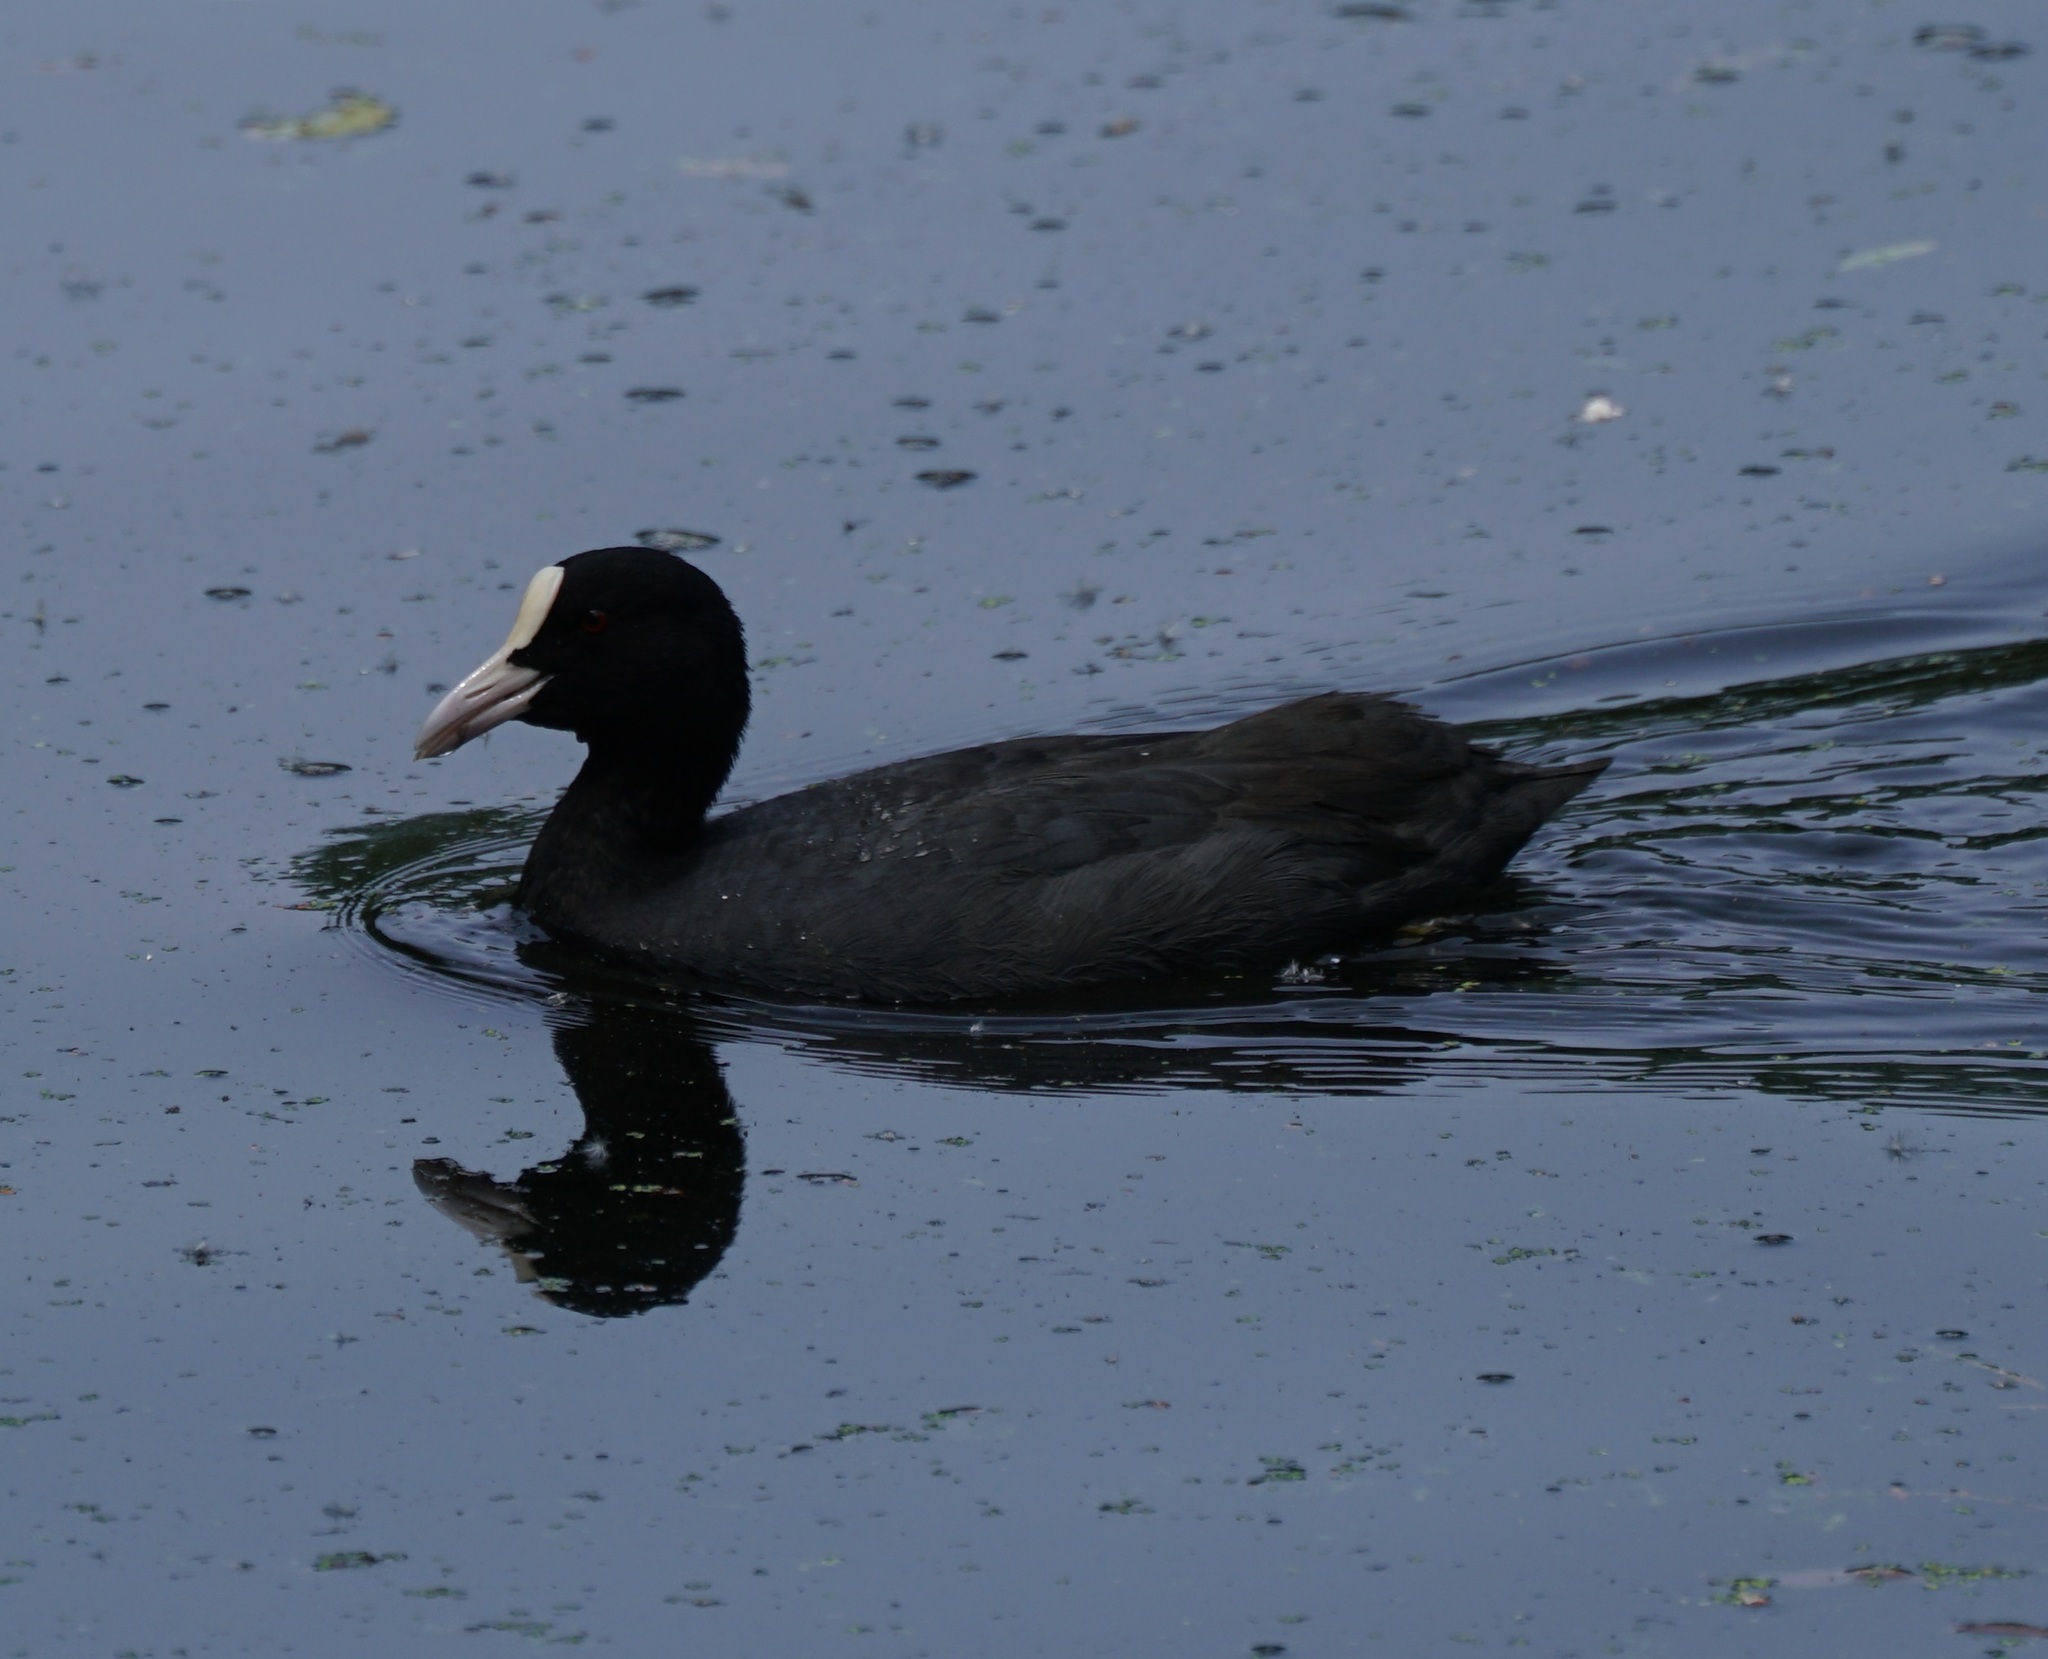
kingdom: Animalia
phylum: Chordata
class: Aves
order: Gruiformes
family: Rallidae
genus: Fulica
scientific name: Fulica atra
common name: Eurasian coot
